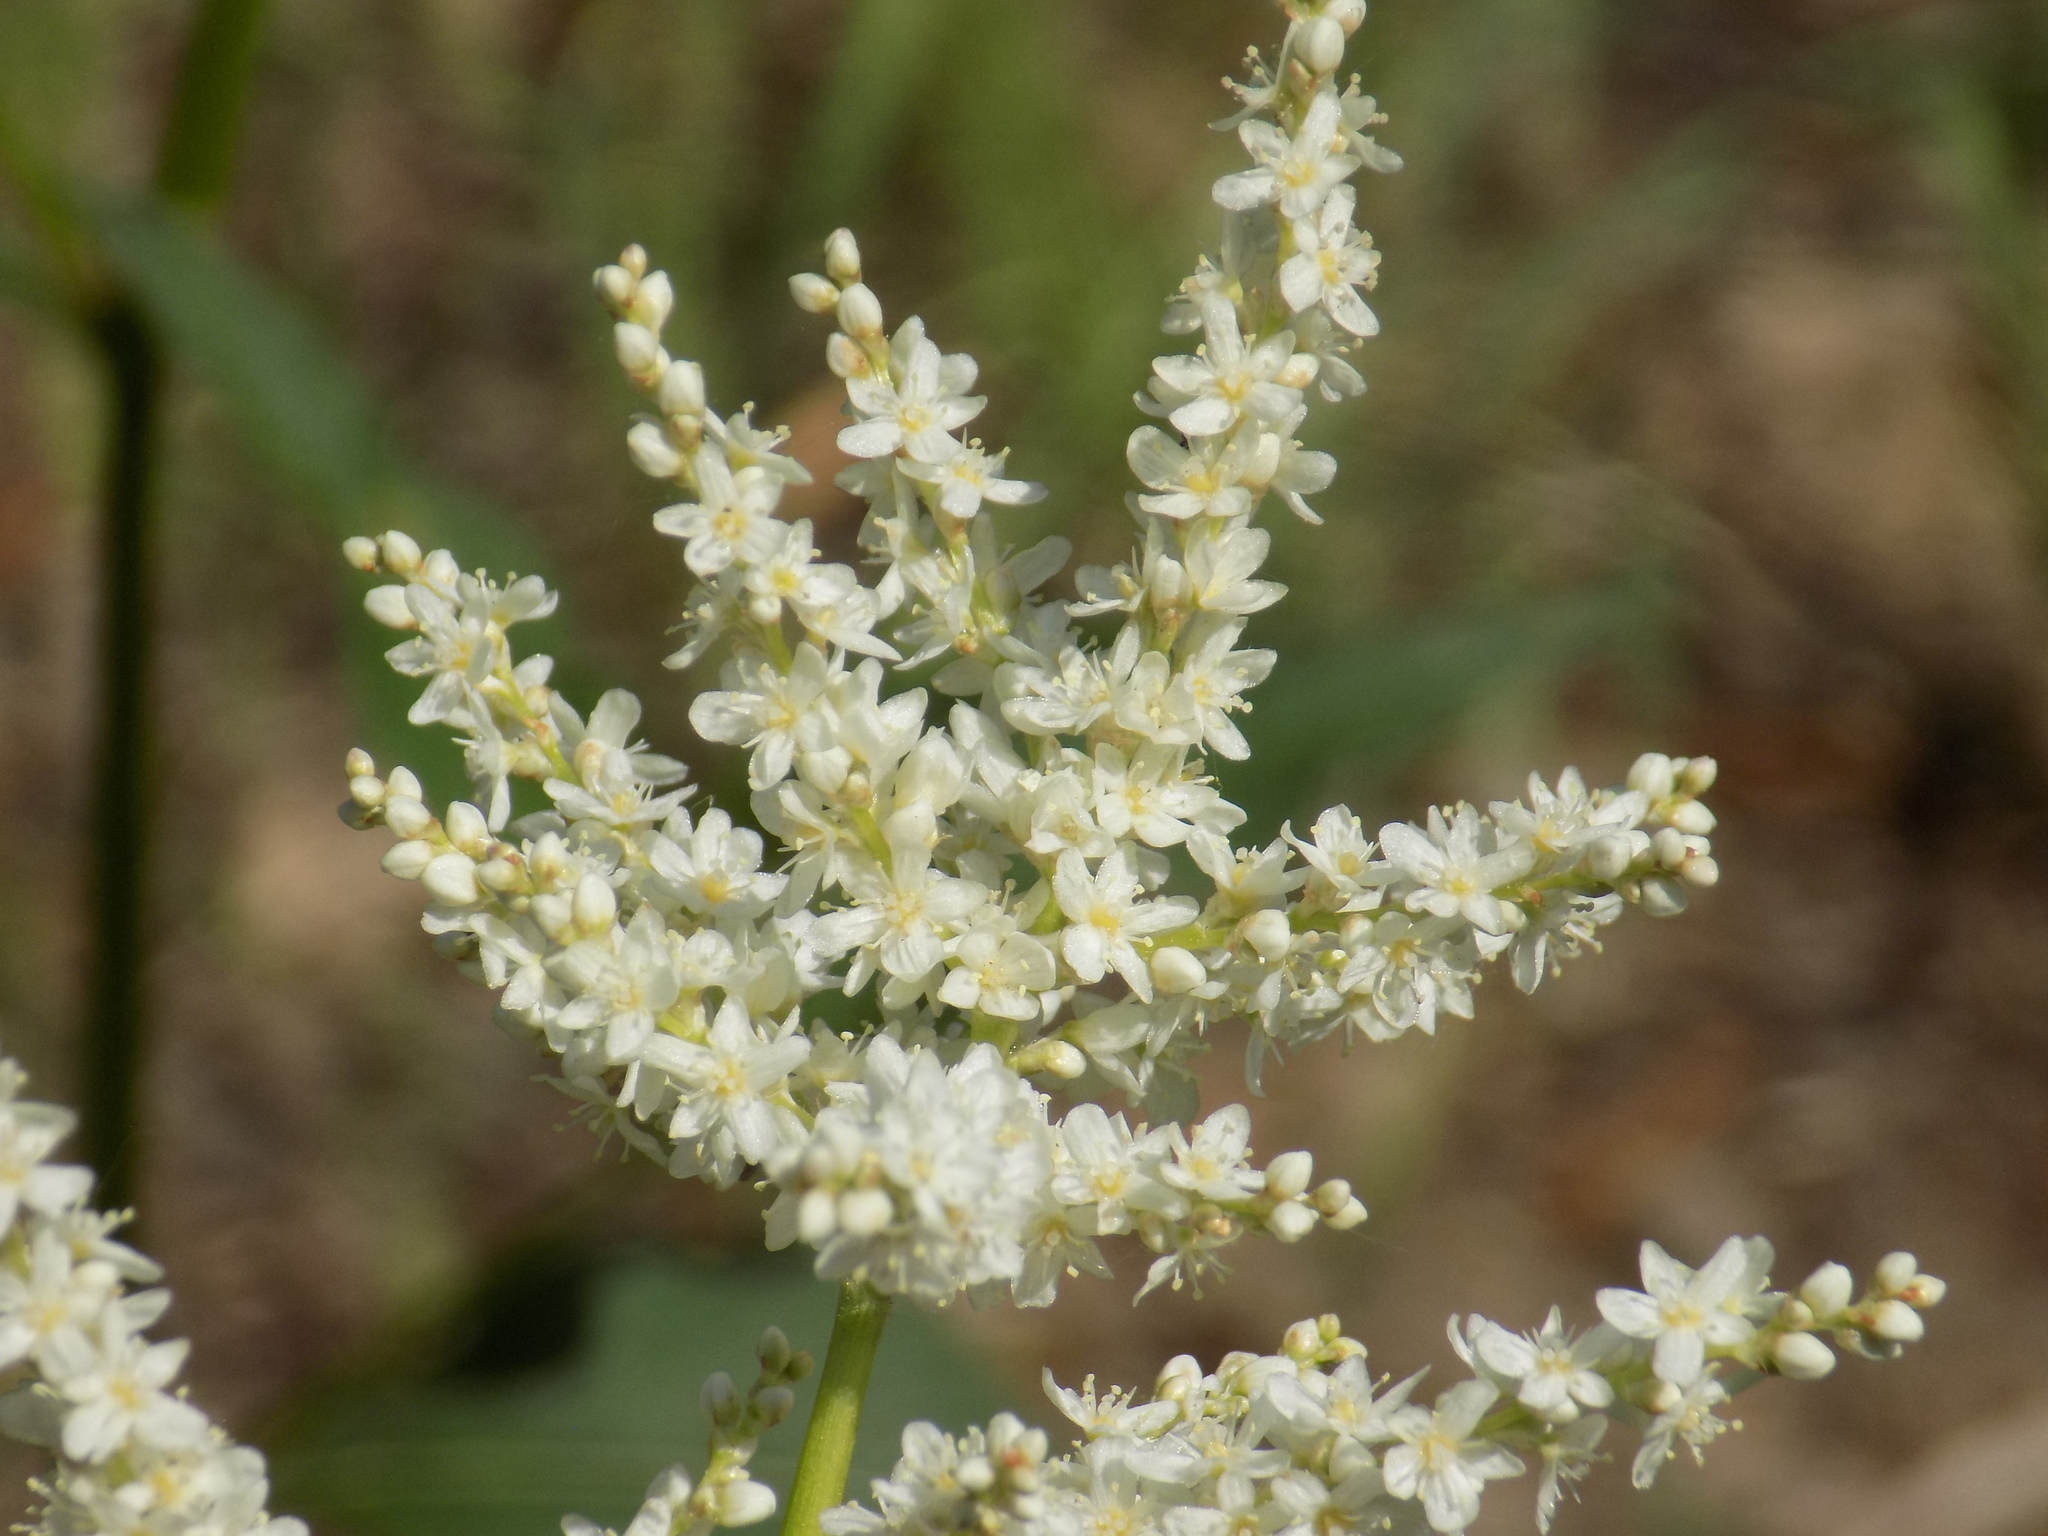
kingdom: Plantae
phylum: Tracheophyta
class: Magnoliopsida
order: Caryophyllales
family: Polygonaceae
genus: Koenigia
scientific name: Koenigia alpina
